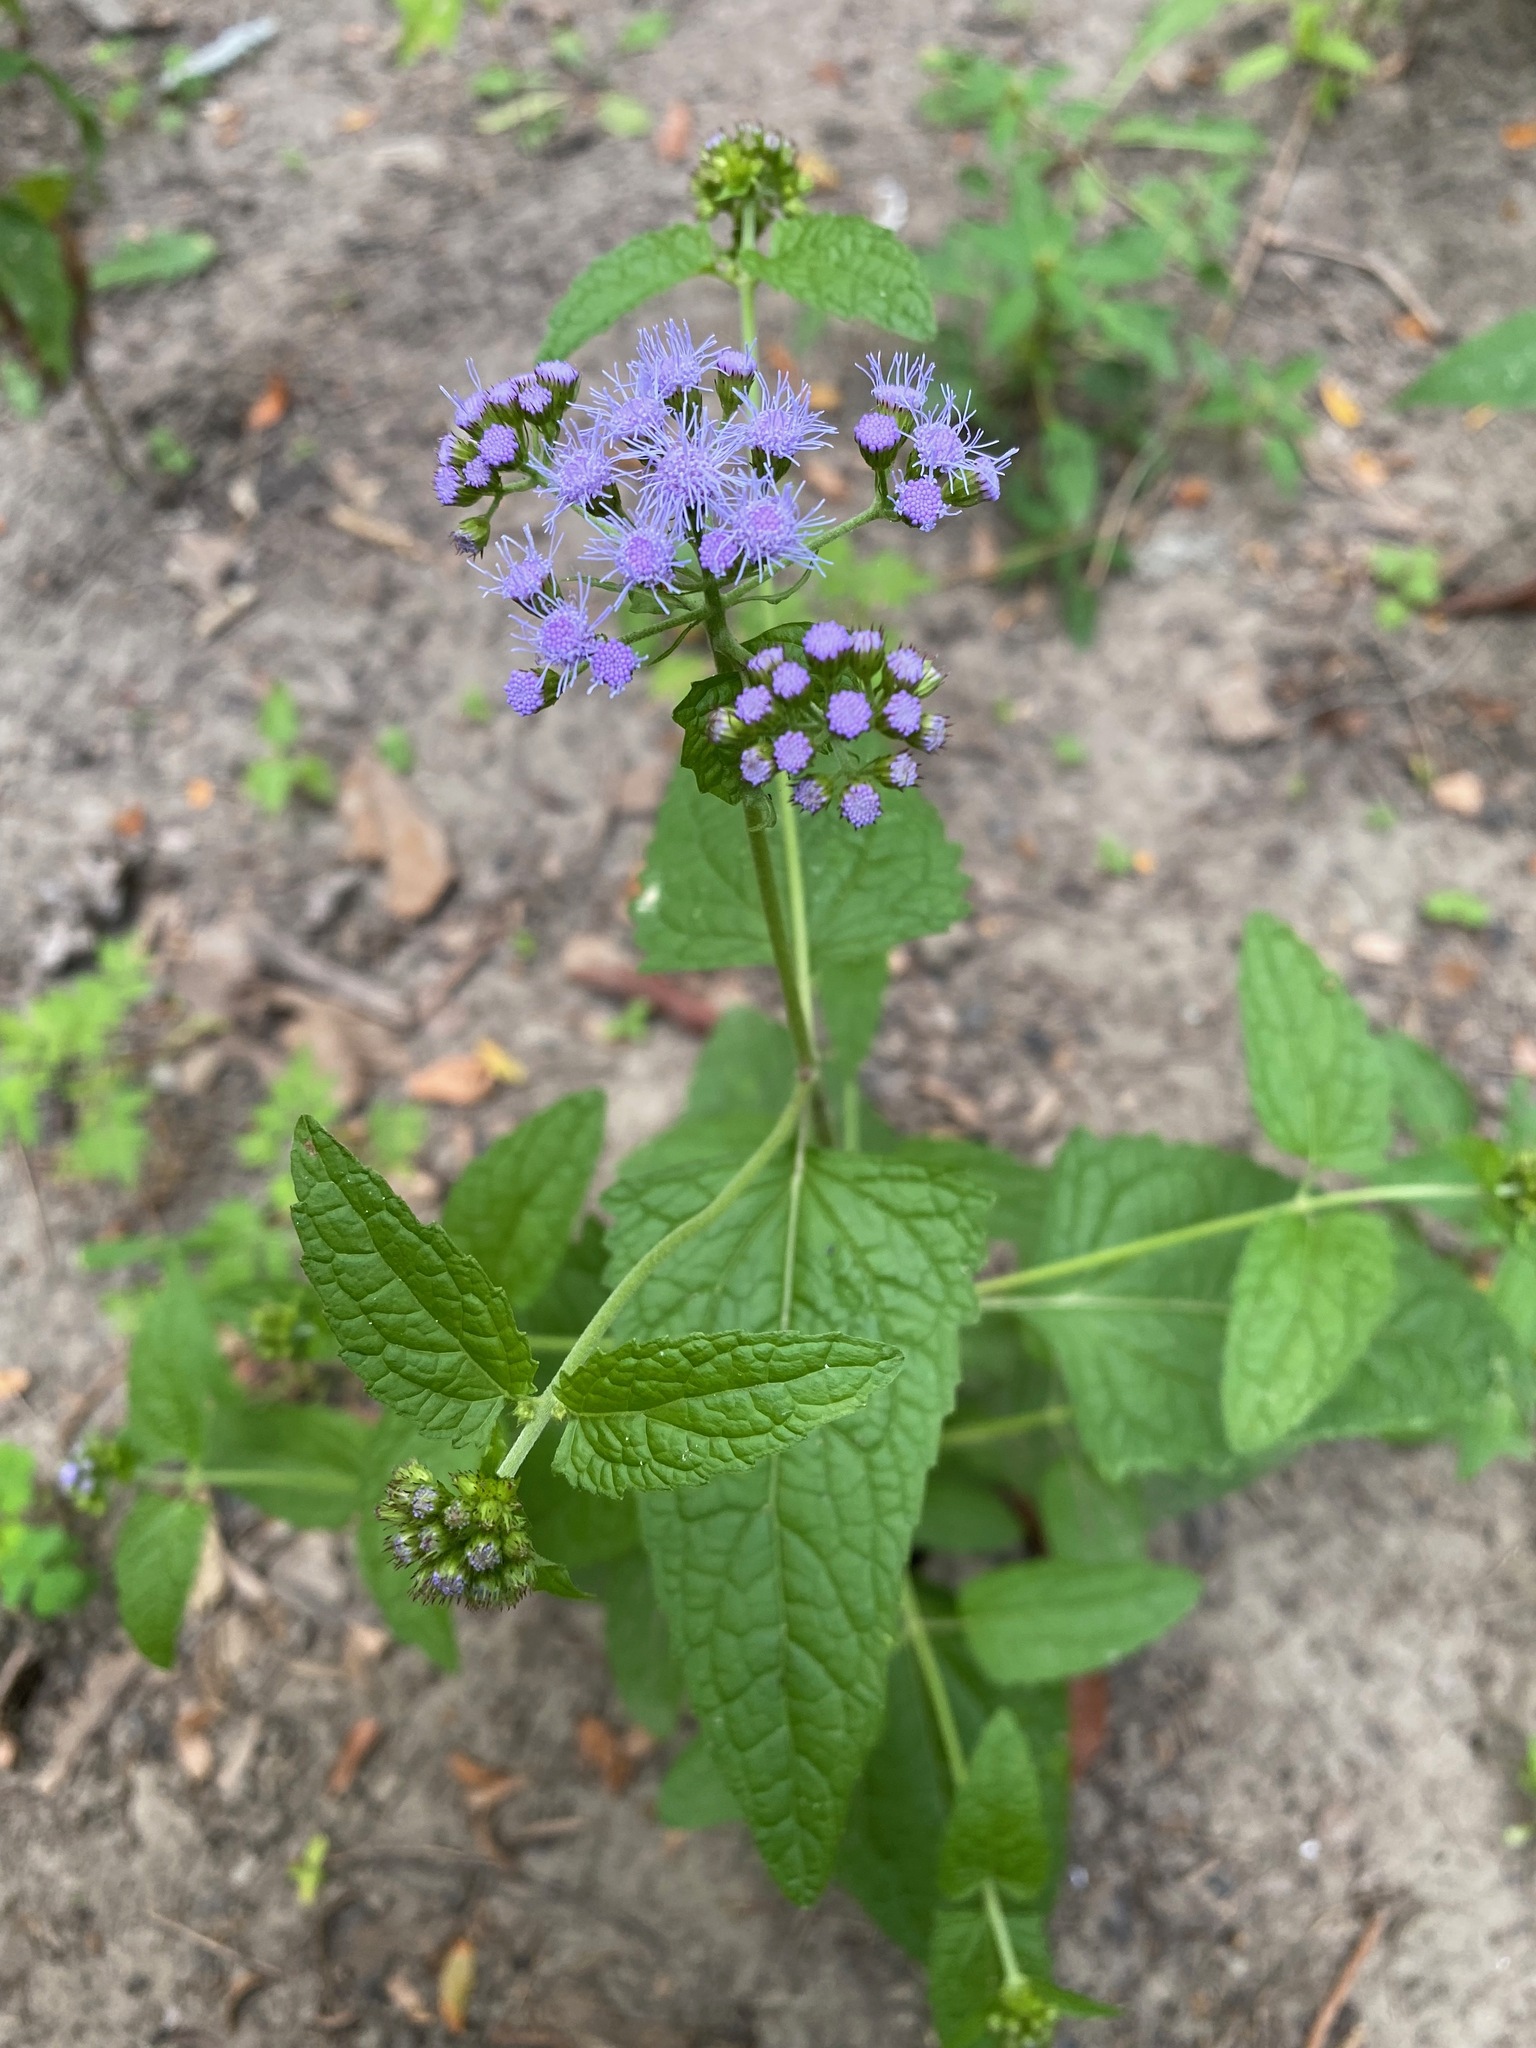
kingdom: Plantae
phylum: Tracheophyta
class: Magnoliopsida
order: Asterales
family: Asteraceae
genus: Conoclinium
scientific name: Conoclinium coelestinum
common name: Blue mistflower
